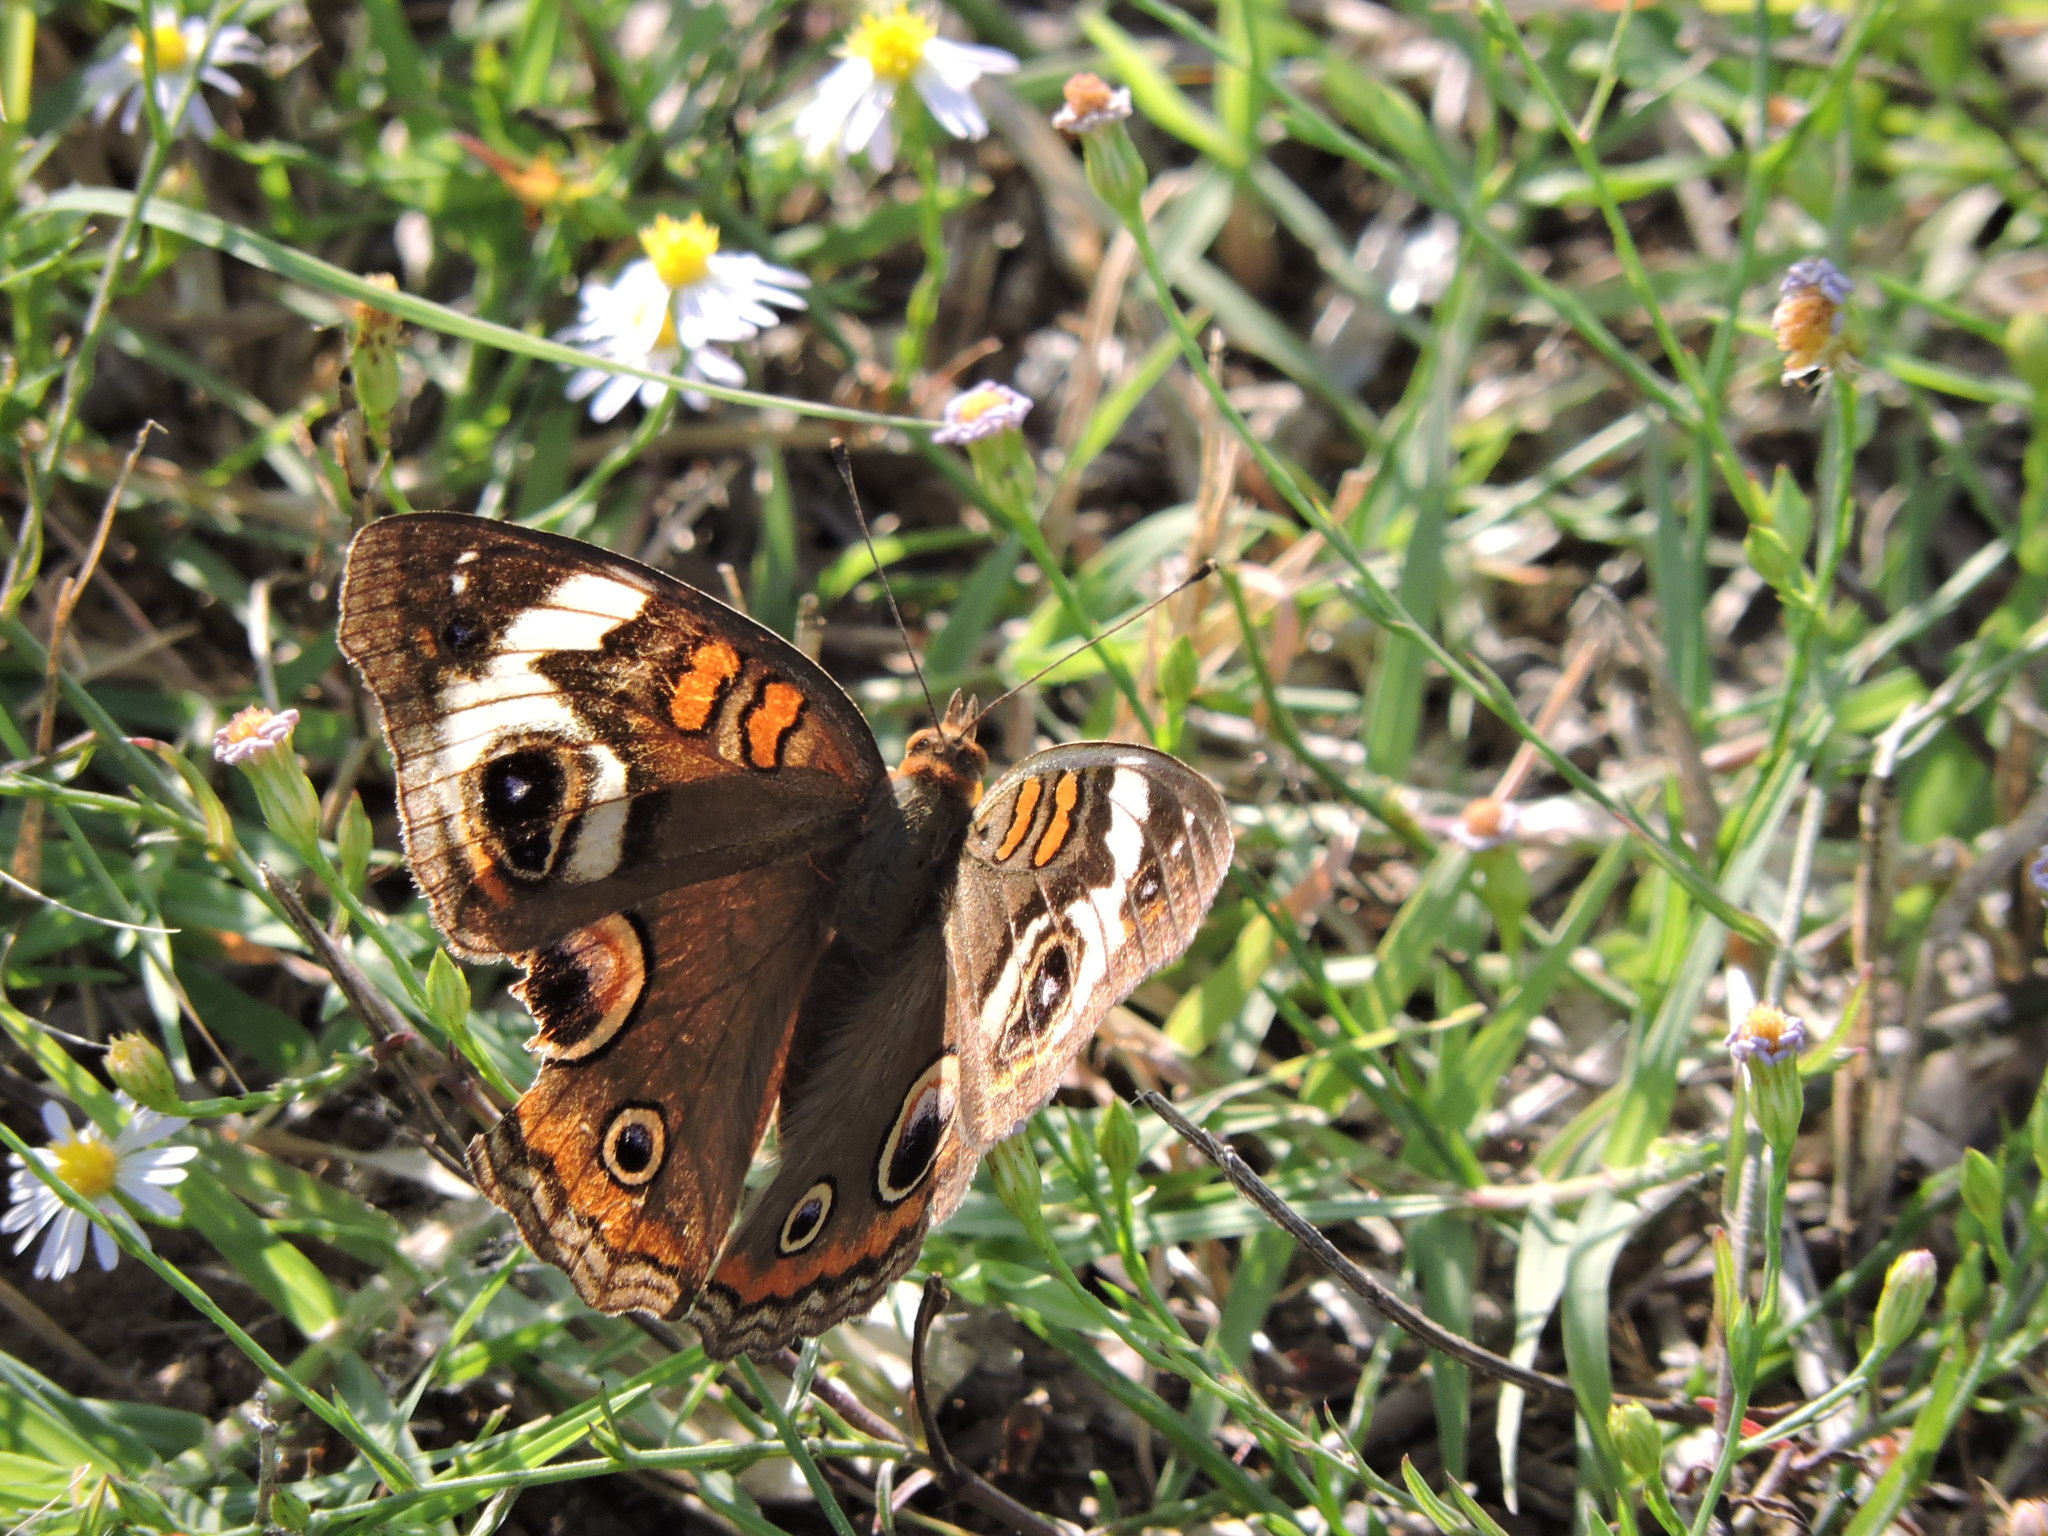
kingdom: Animalia
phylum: Arthropoda
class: Insecta
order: Lepidoptera
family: Nymphalidae
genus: Junonia
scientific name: Junonia coenia
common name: Common buckeye
